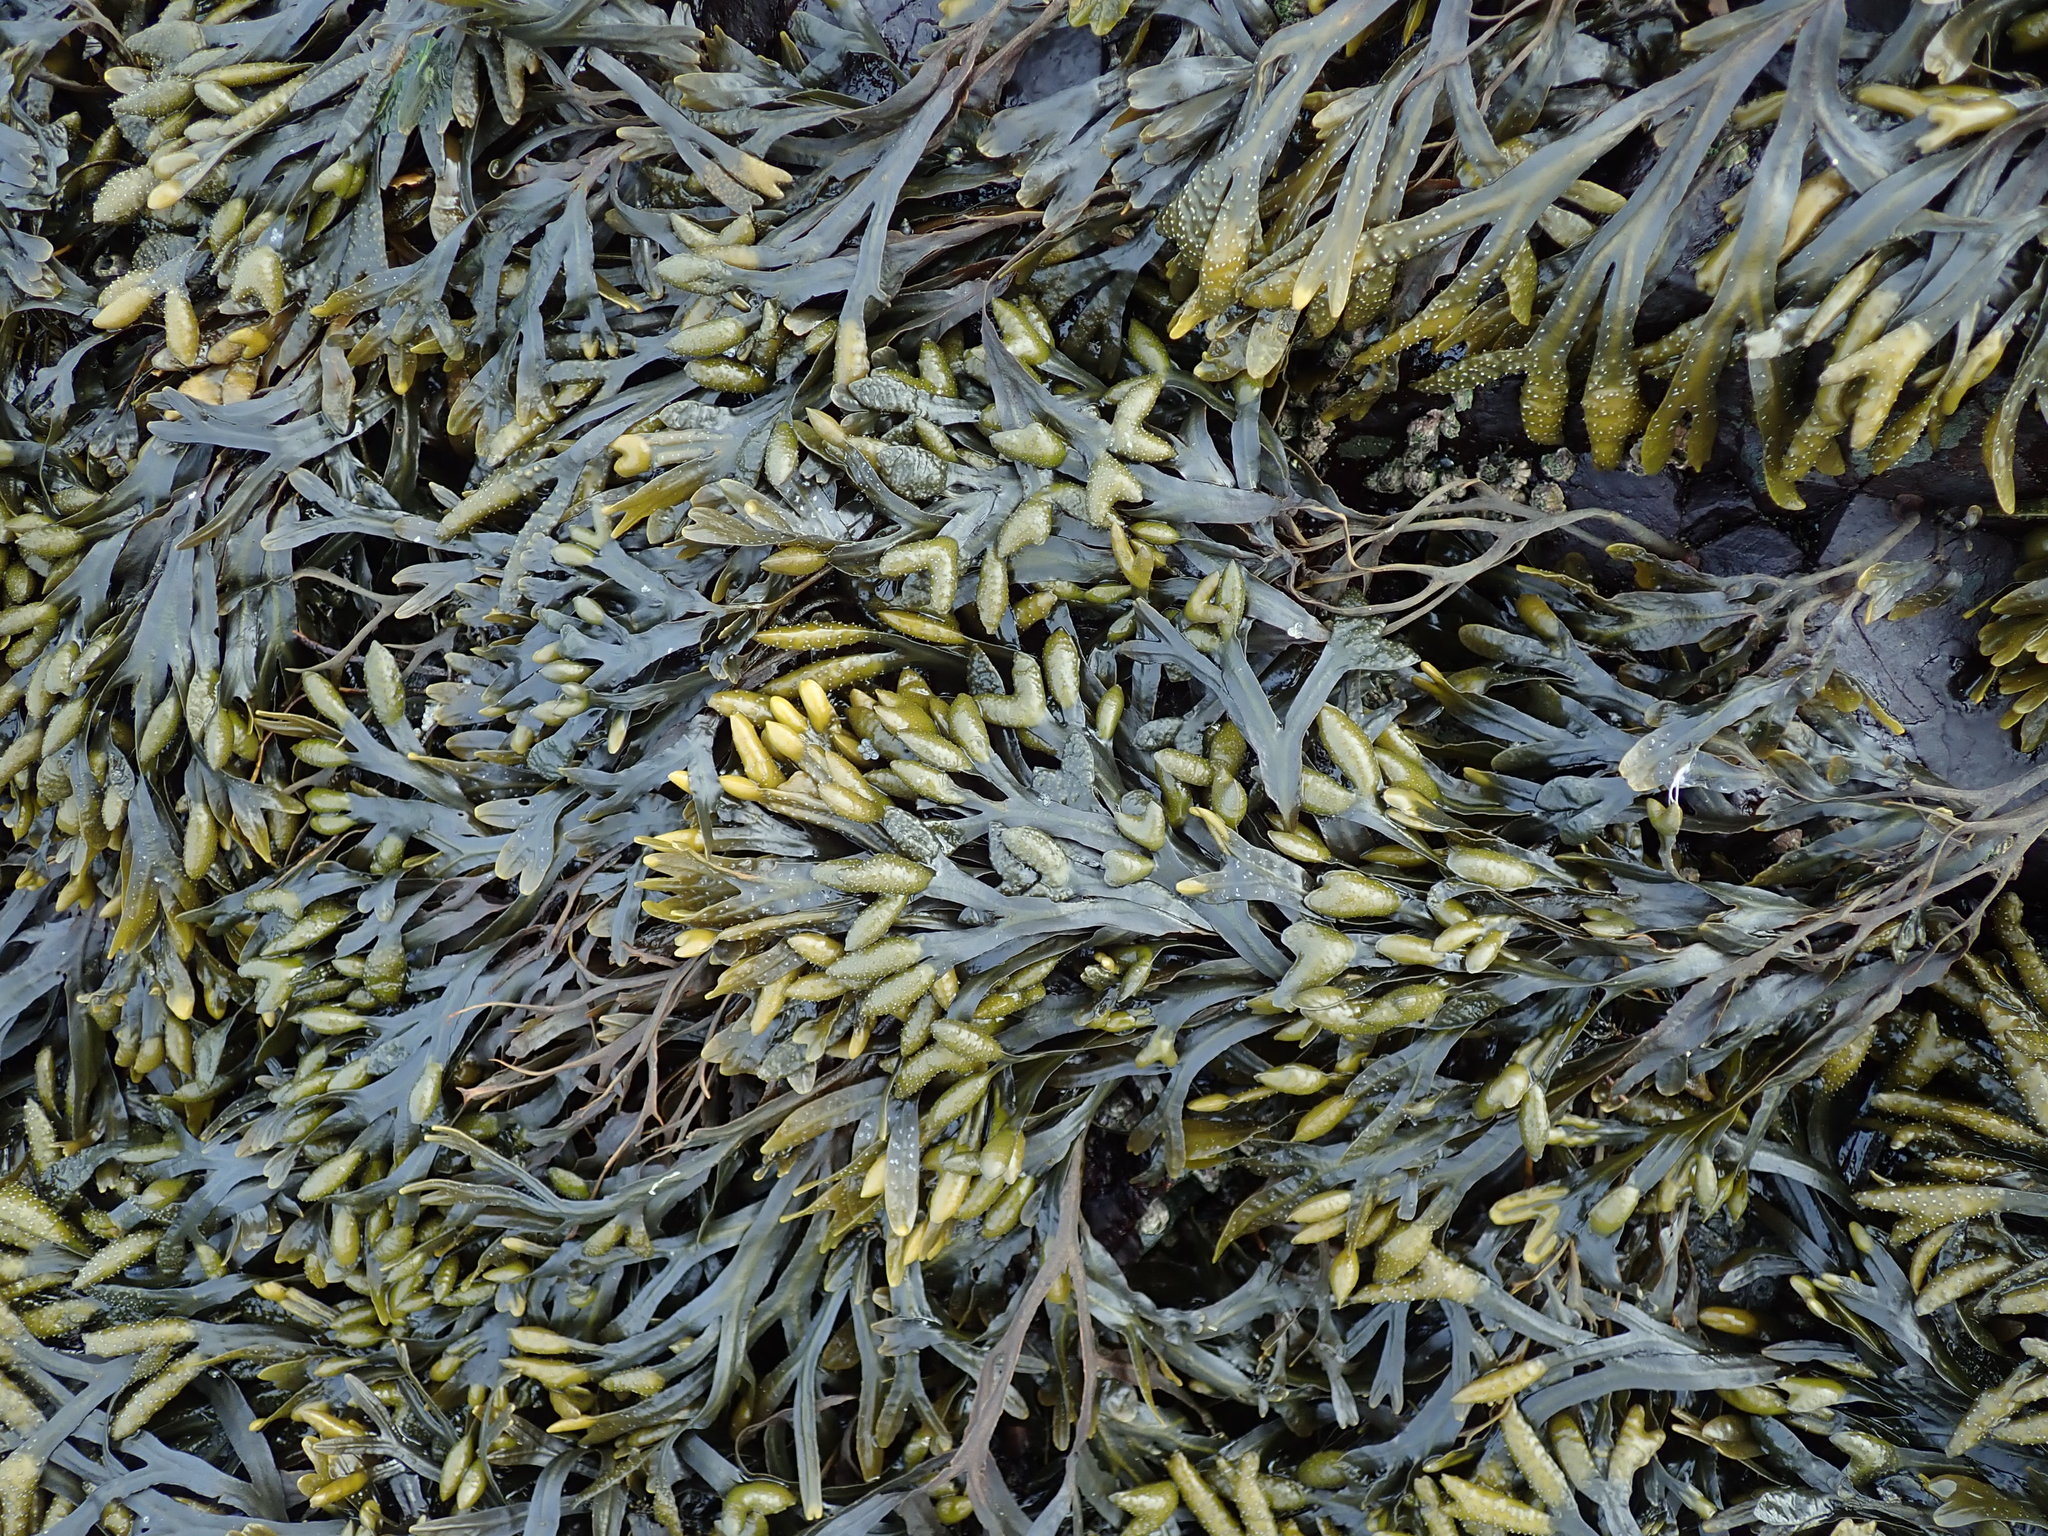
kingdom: Chromista
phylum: Ochrophyta
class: Phaeophyceae
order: Fucales
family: Fucaceae
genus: Fucus
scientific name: Fucus distichus
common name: Rockweed
